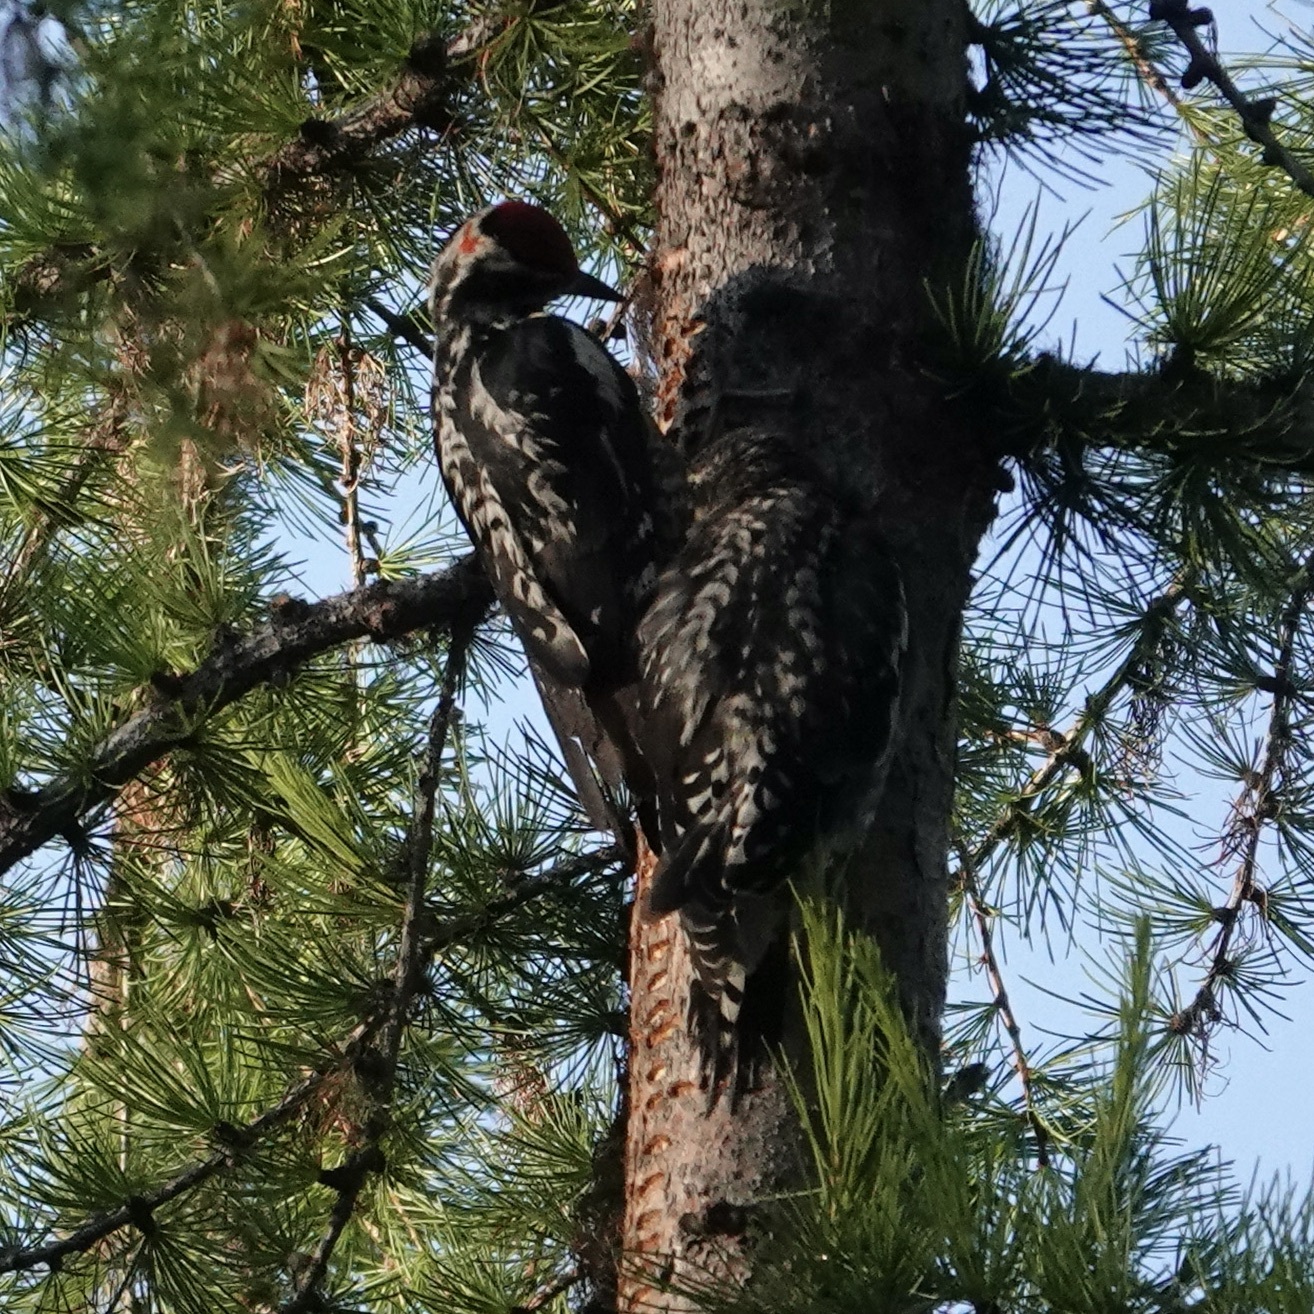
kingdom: Animalia
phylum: Chordata
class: Aves
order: Piciformes
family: Picidae
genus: Sphyrapicus
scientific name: Sphyrapicus nuchalis
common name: Red-naped sapsucker
